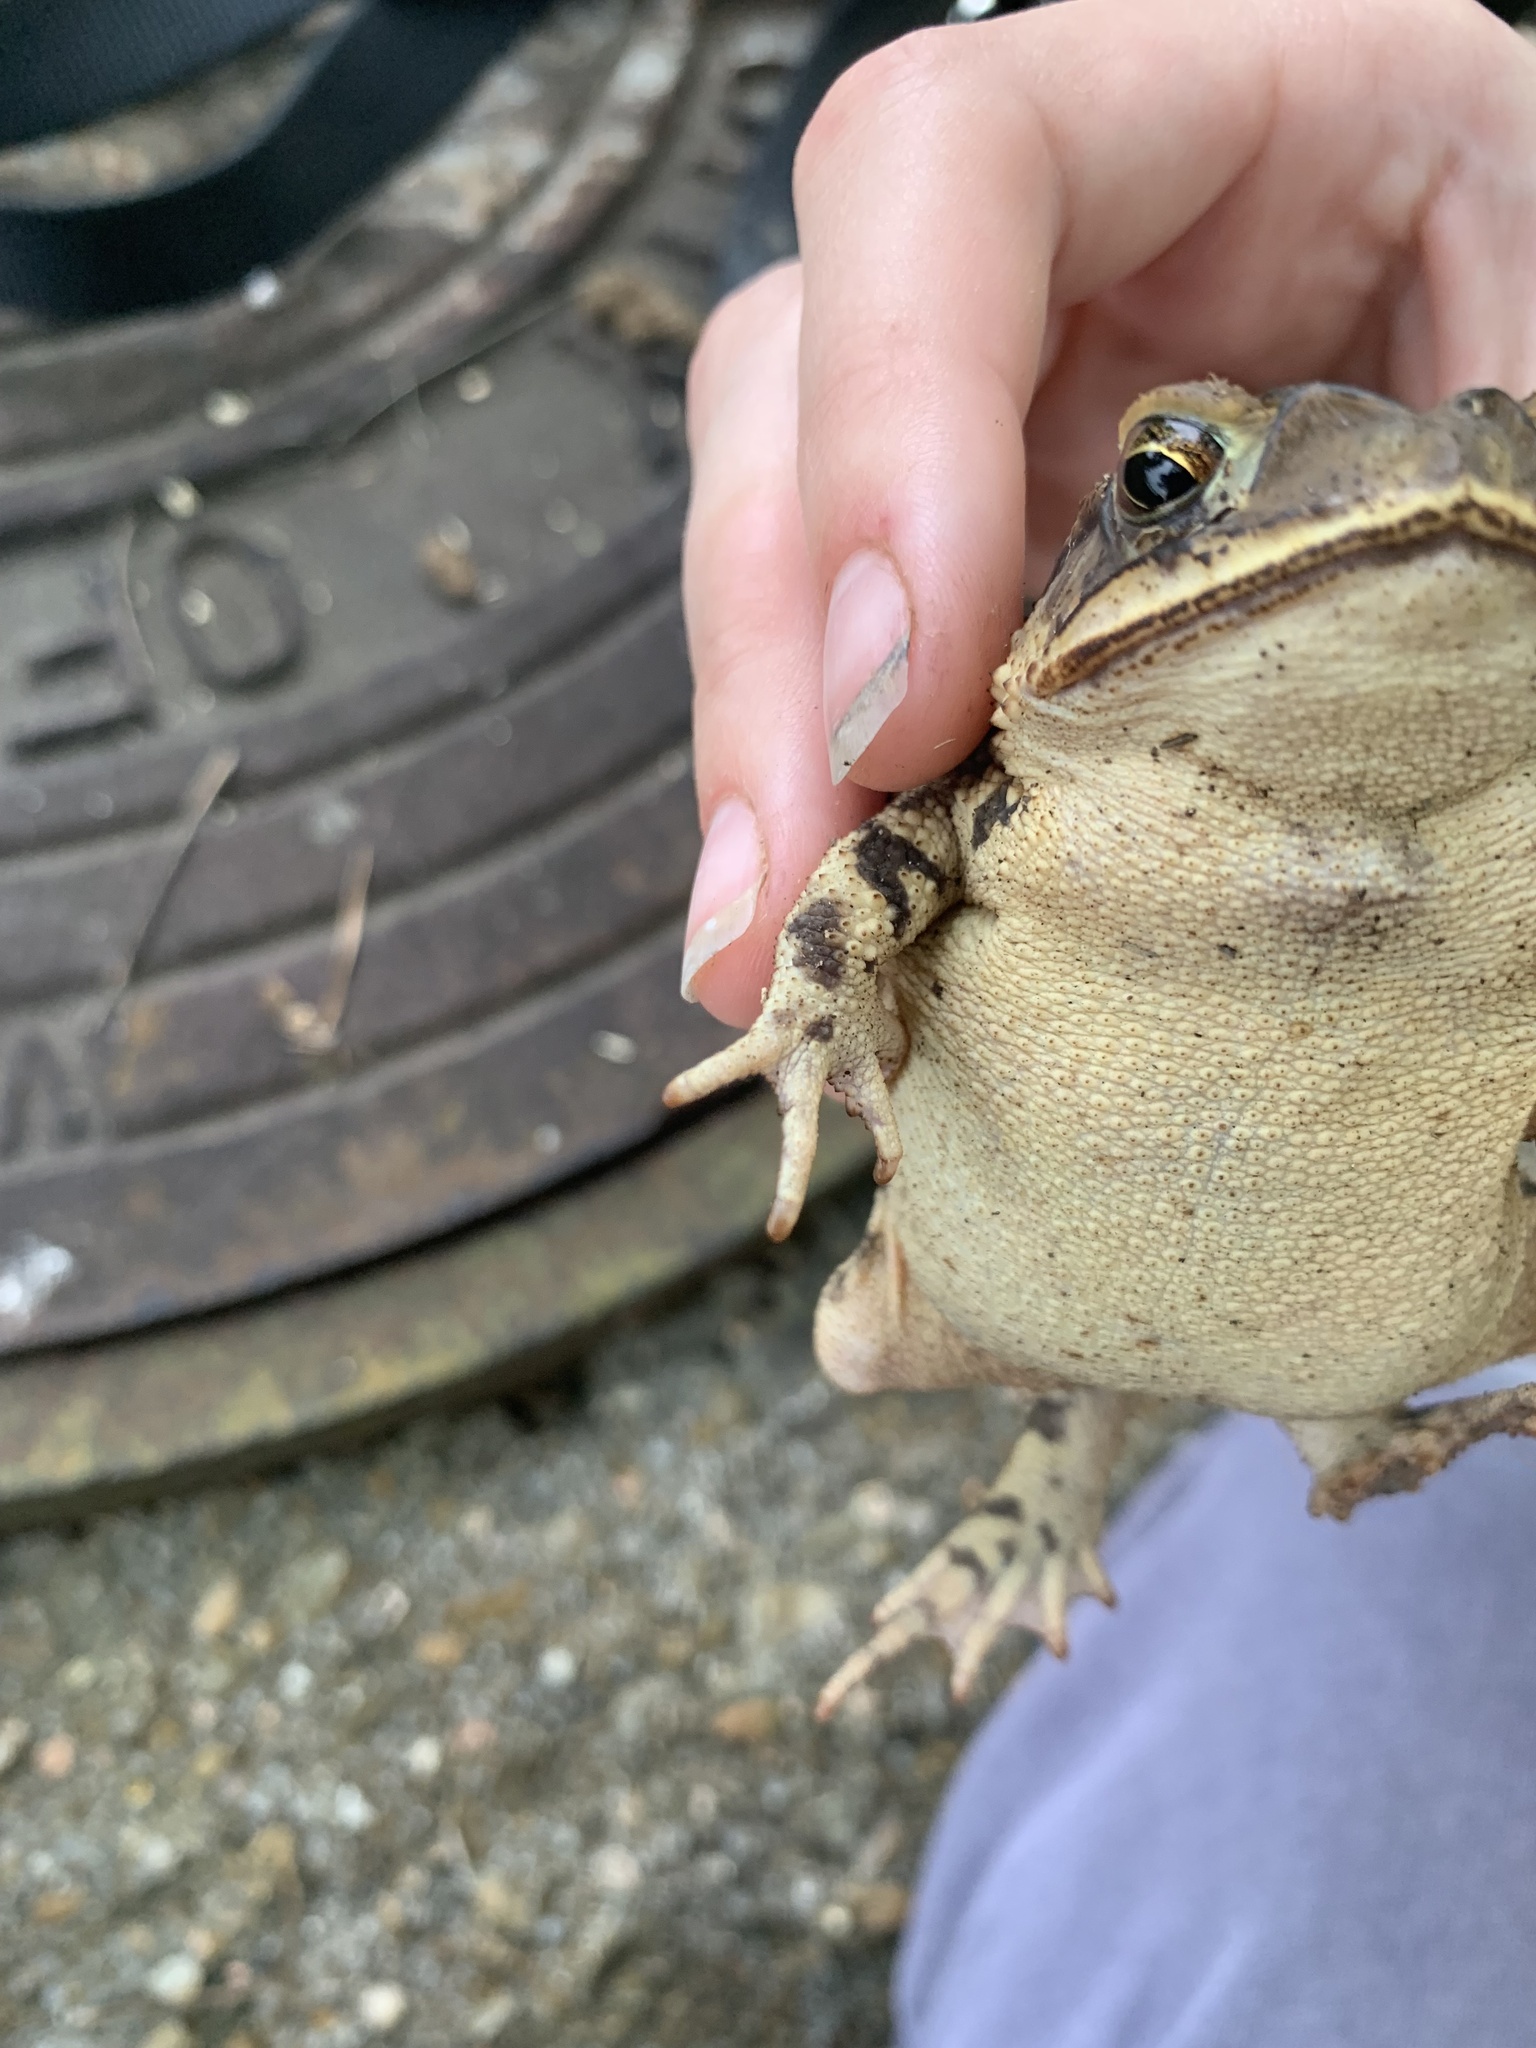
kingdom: Animalia
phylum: Chordata
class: Amphibia
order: Anura
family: Bufonidae
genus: Incilius
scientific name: Incilius nebulifer
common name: Gulf coast toad
